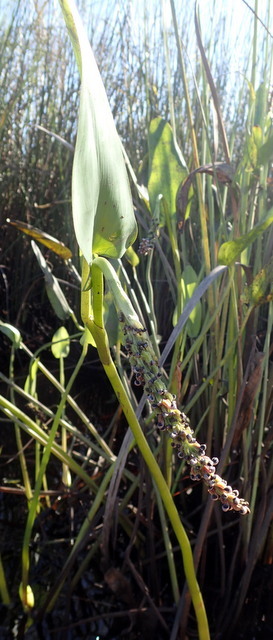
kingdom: Plantae
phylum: Tracheophyta
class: Liliopsida
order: Commelinales
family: Pontederiaceae
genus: Pontederia
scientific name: Pontederia cordata
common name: Pickerelweed
